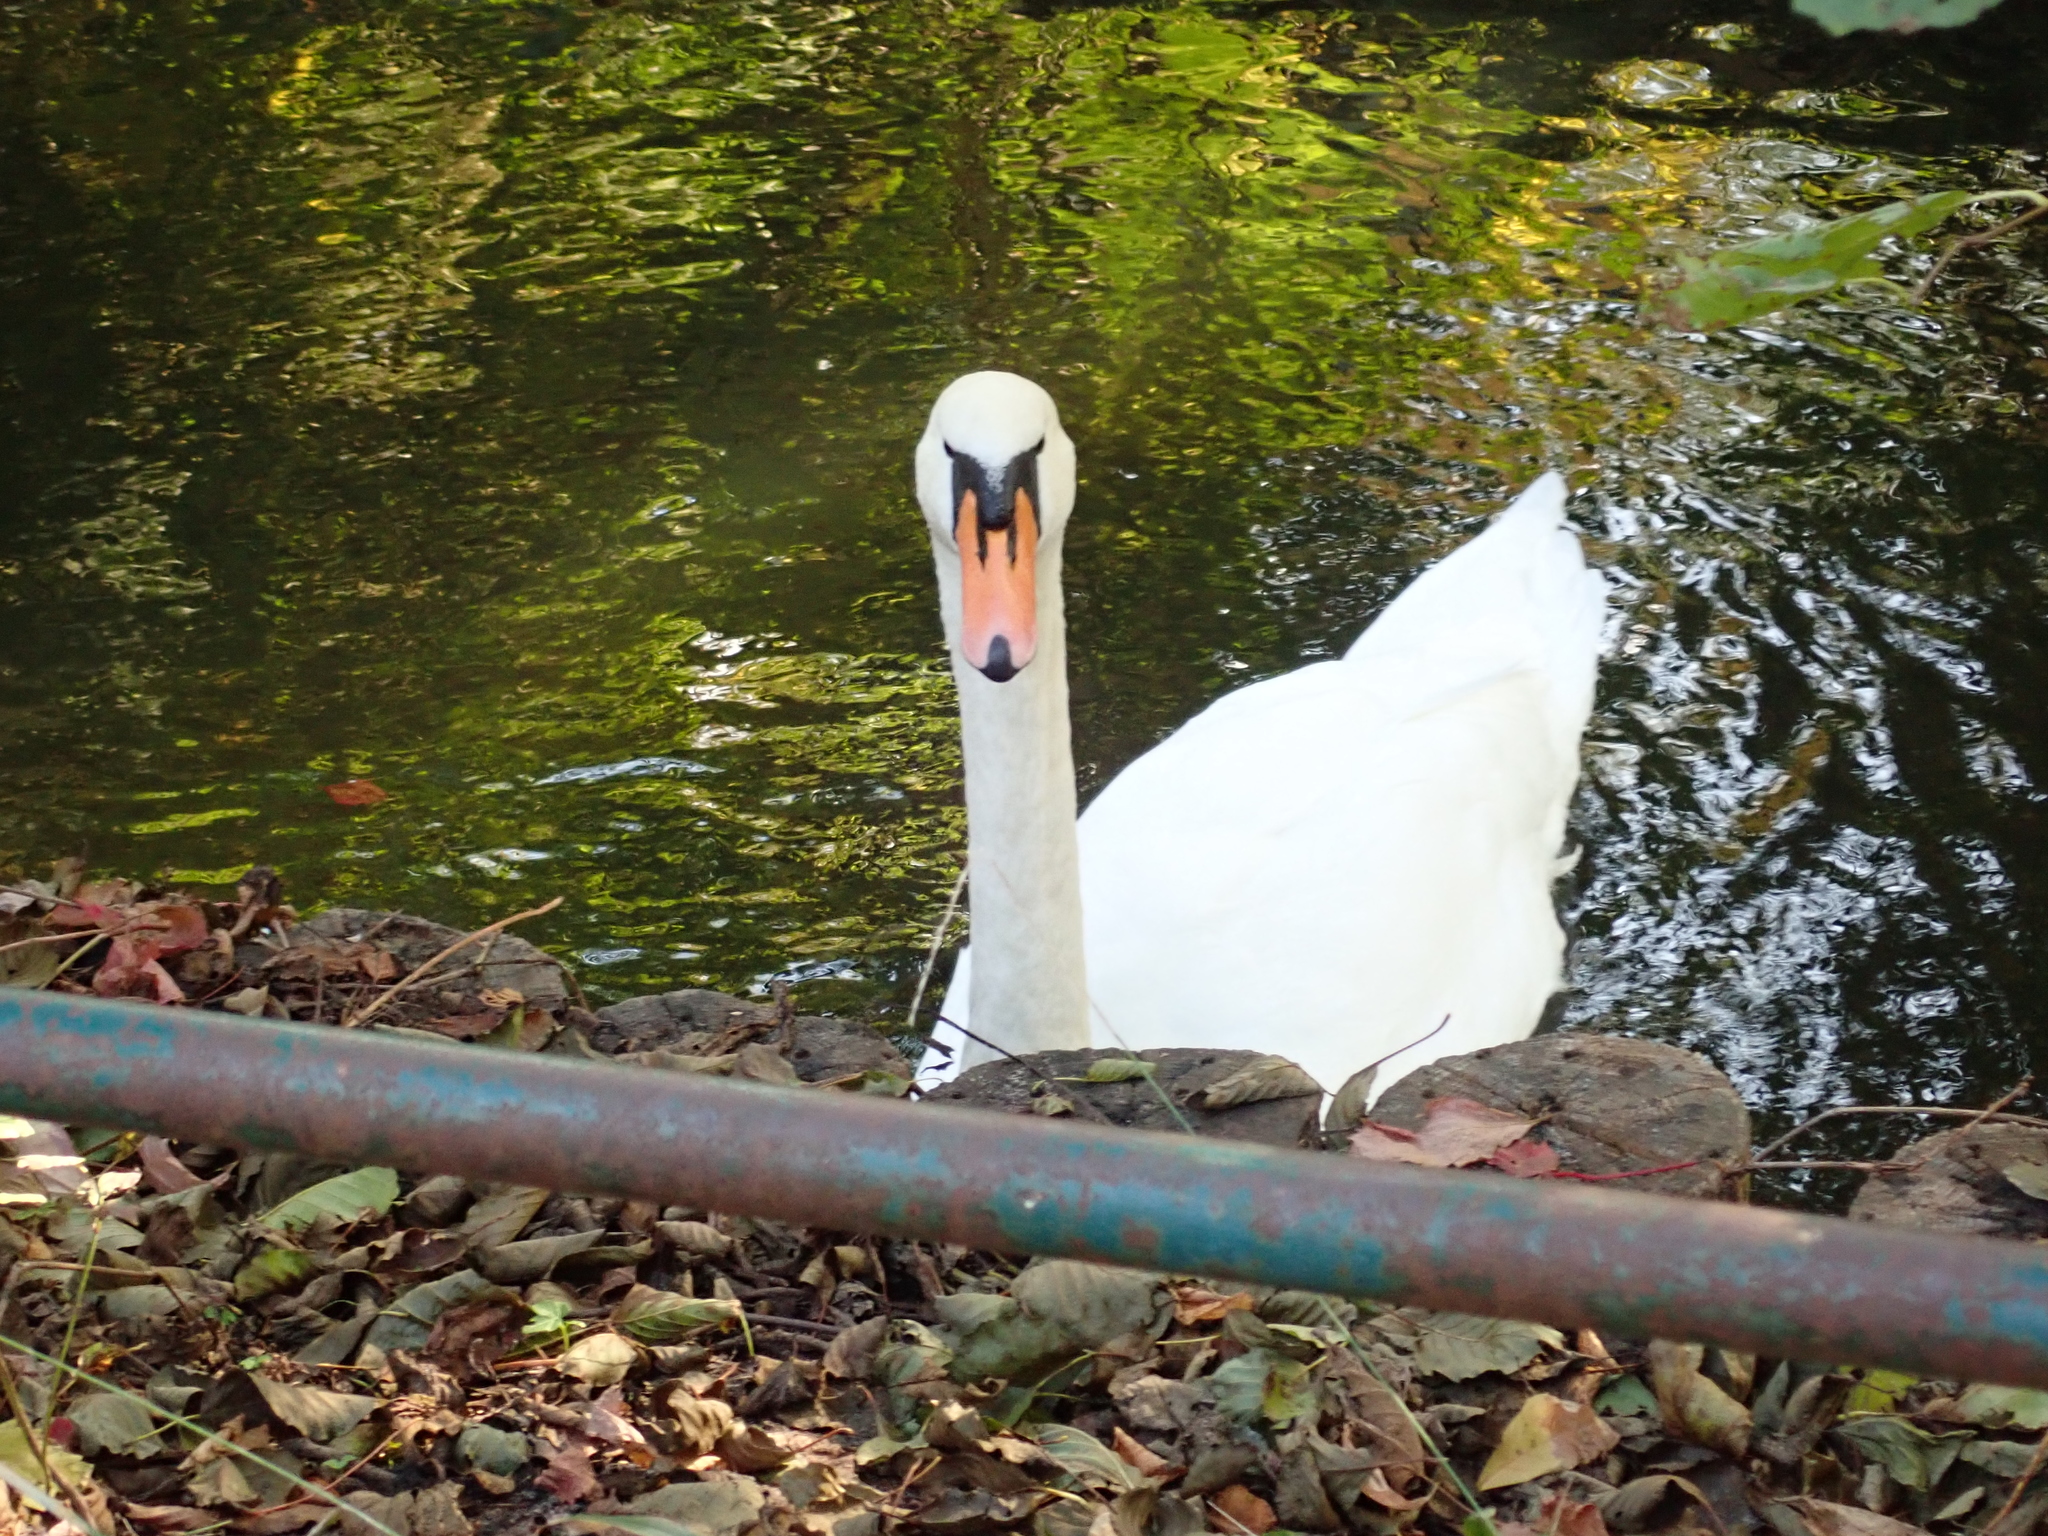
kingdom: Animalia
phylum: Chordata
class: Aves
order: Anseriformes
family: Anatidae
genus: Cygnus
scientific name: Cygnus olor
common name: Mute swan
